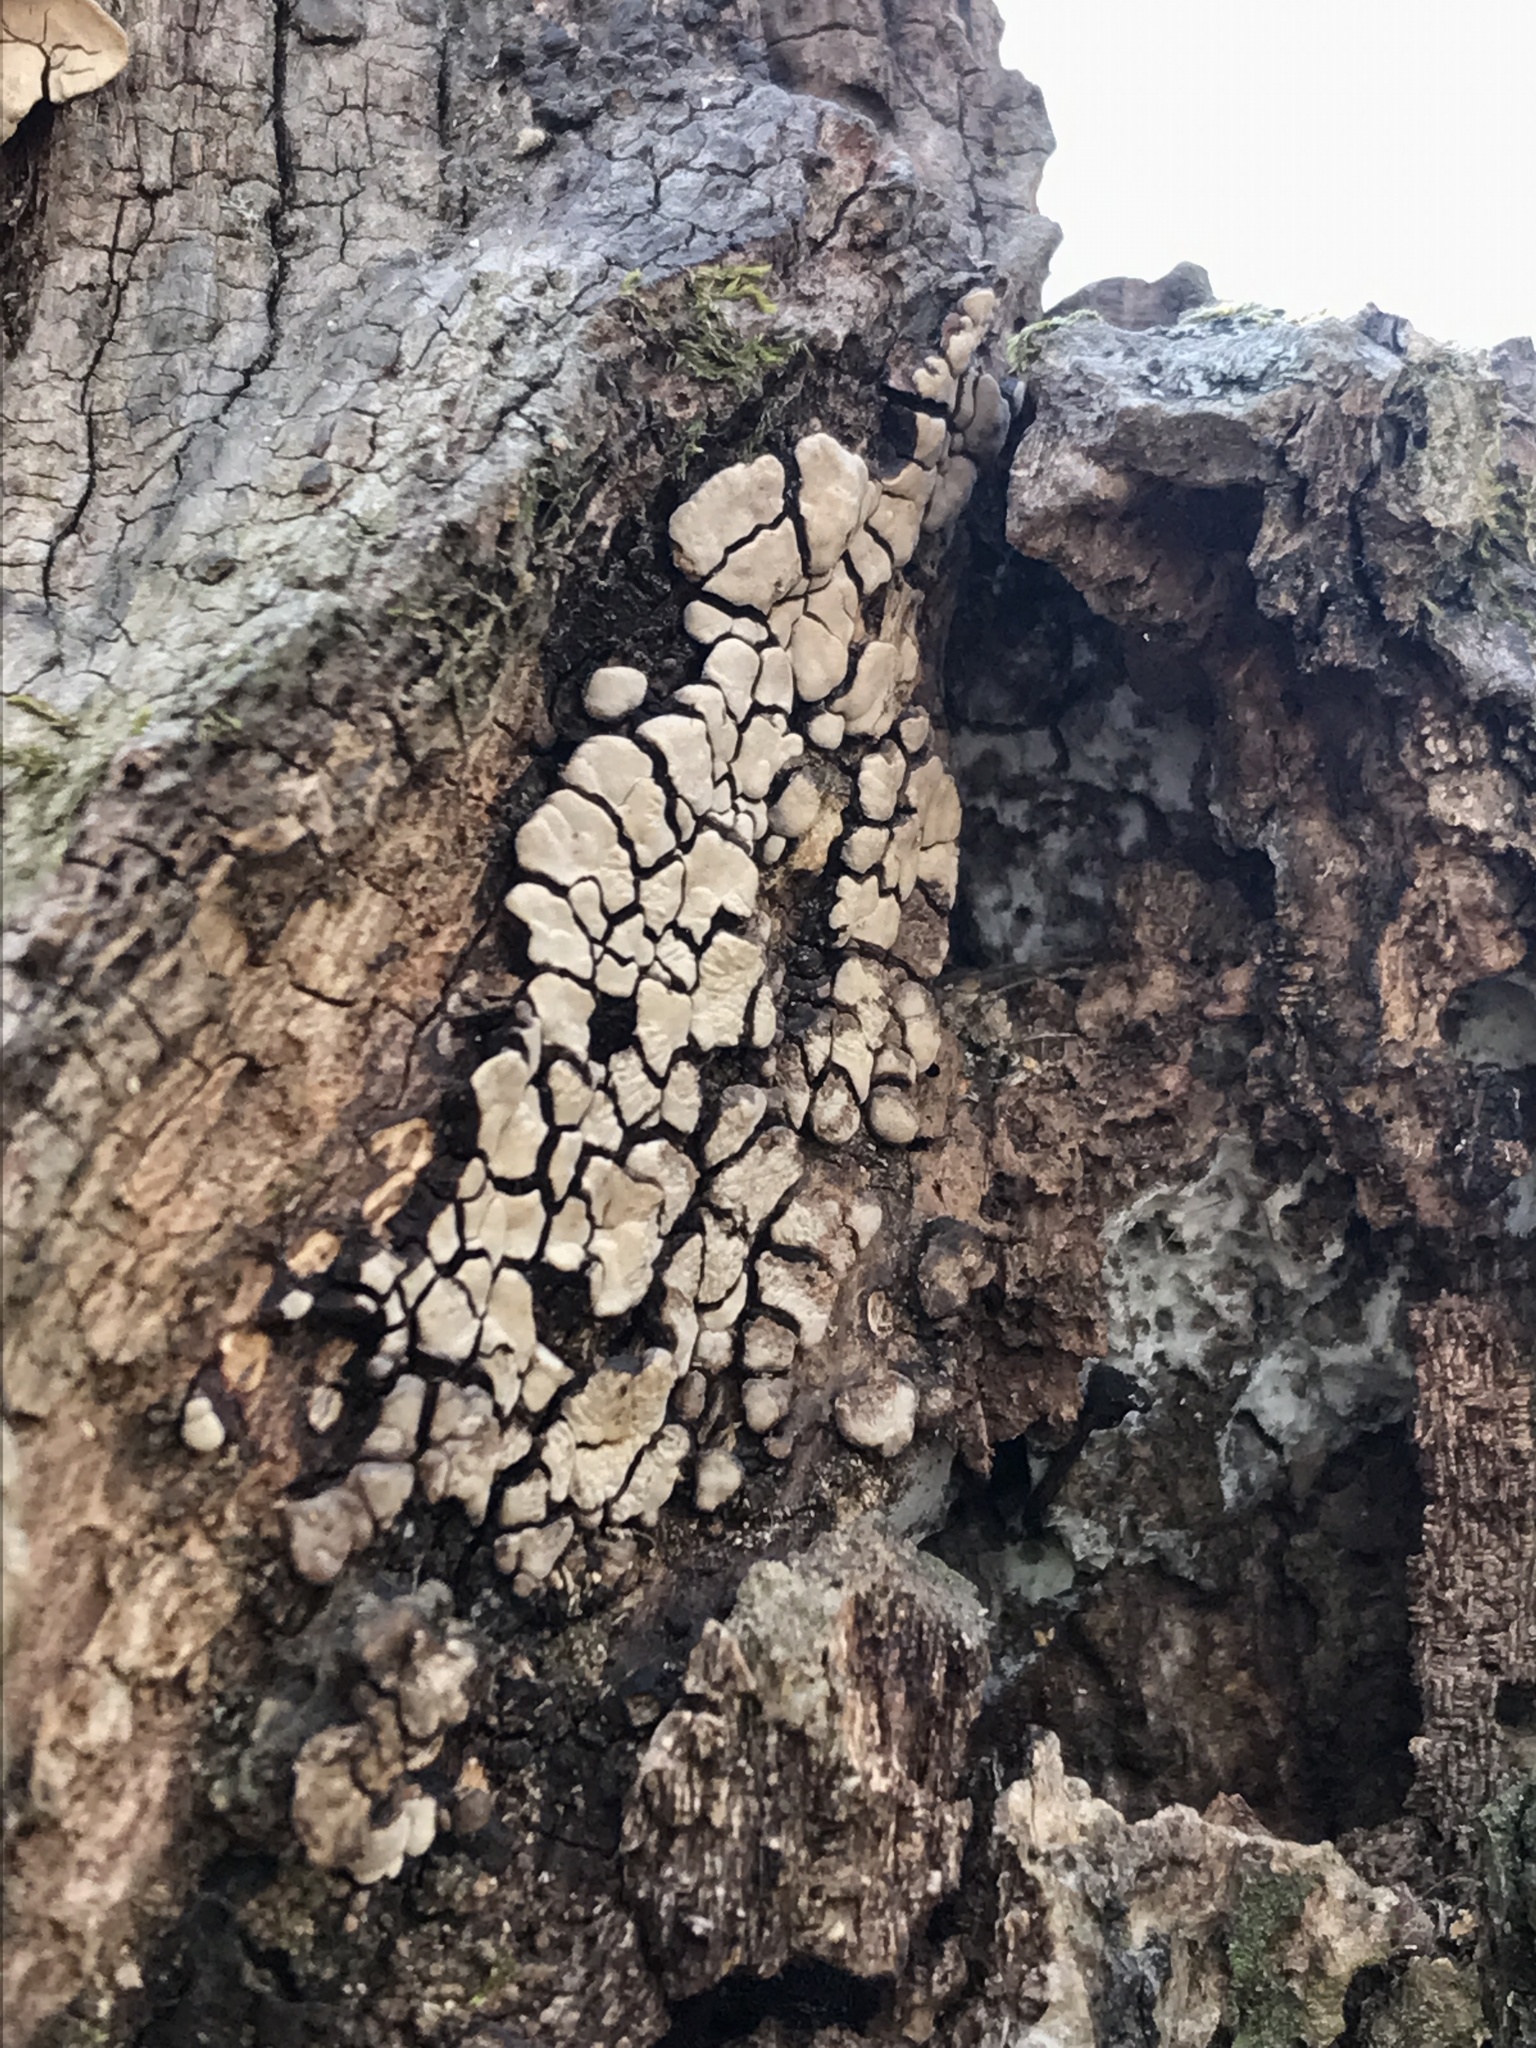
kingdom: Fungi
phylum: Basidiomycota
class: Agaricomycetes
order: Russulales
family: Stereaceae
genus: Xylobolus
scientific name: Xylobolus frustulatus
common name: Ceramic parchment
